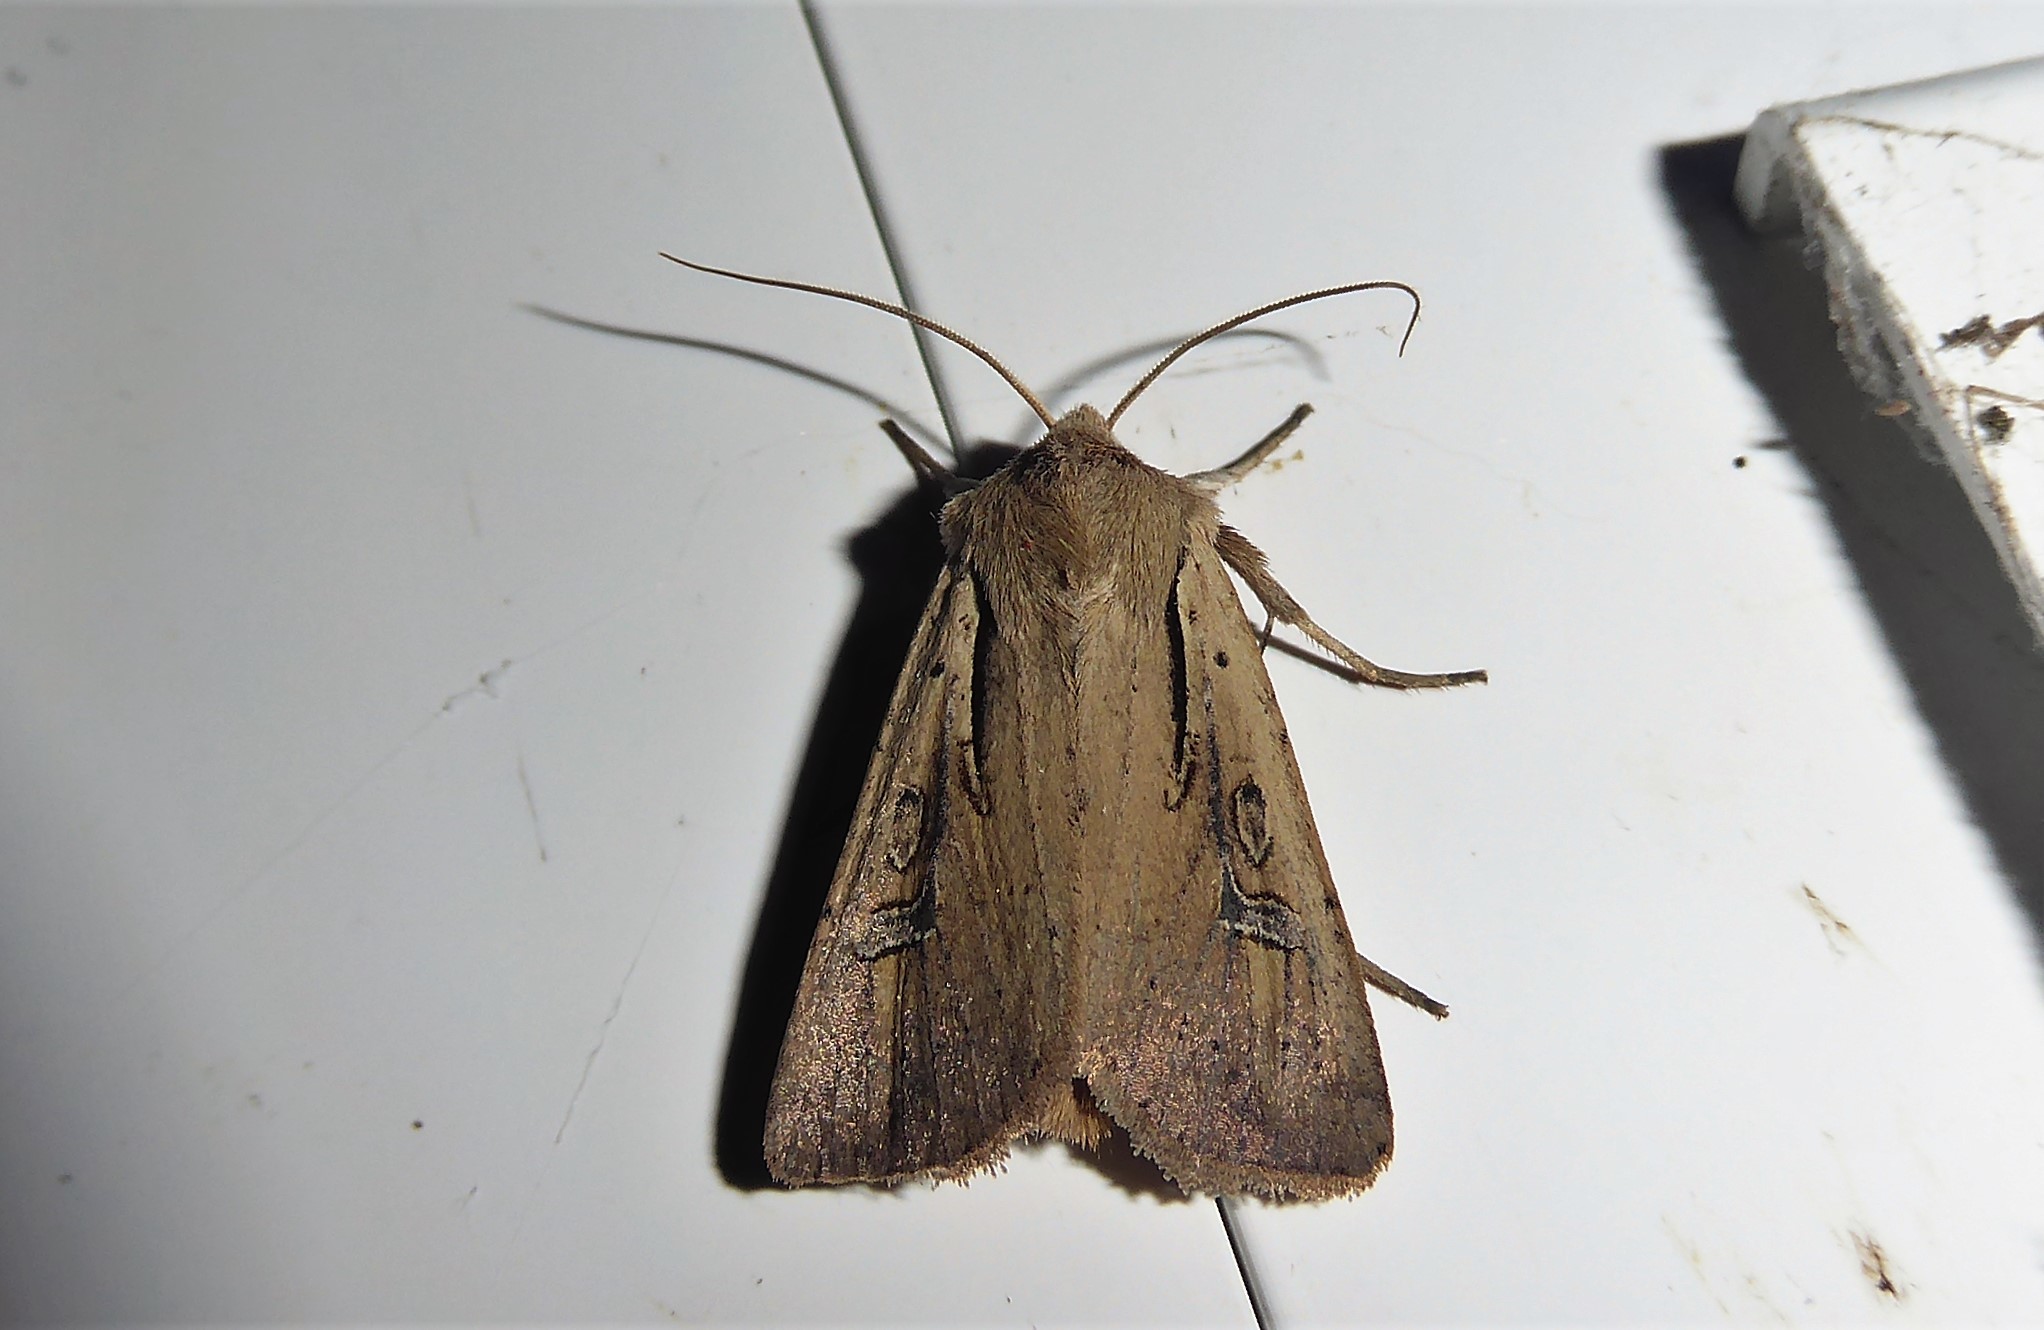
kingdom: Animalia
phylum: Arthropoda
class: Insecta
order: Lepidoptera
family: Noctuidae
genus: Ichneutica
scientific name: Ichneutica atristriga
